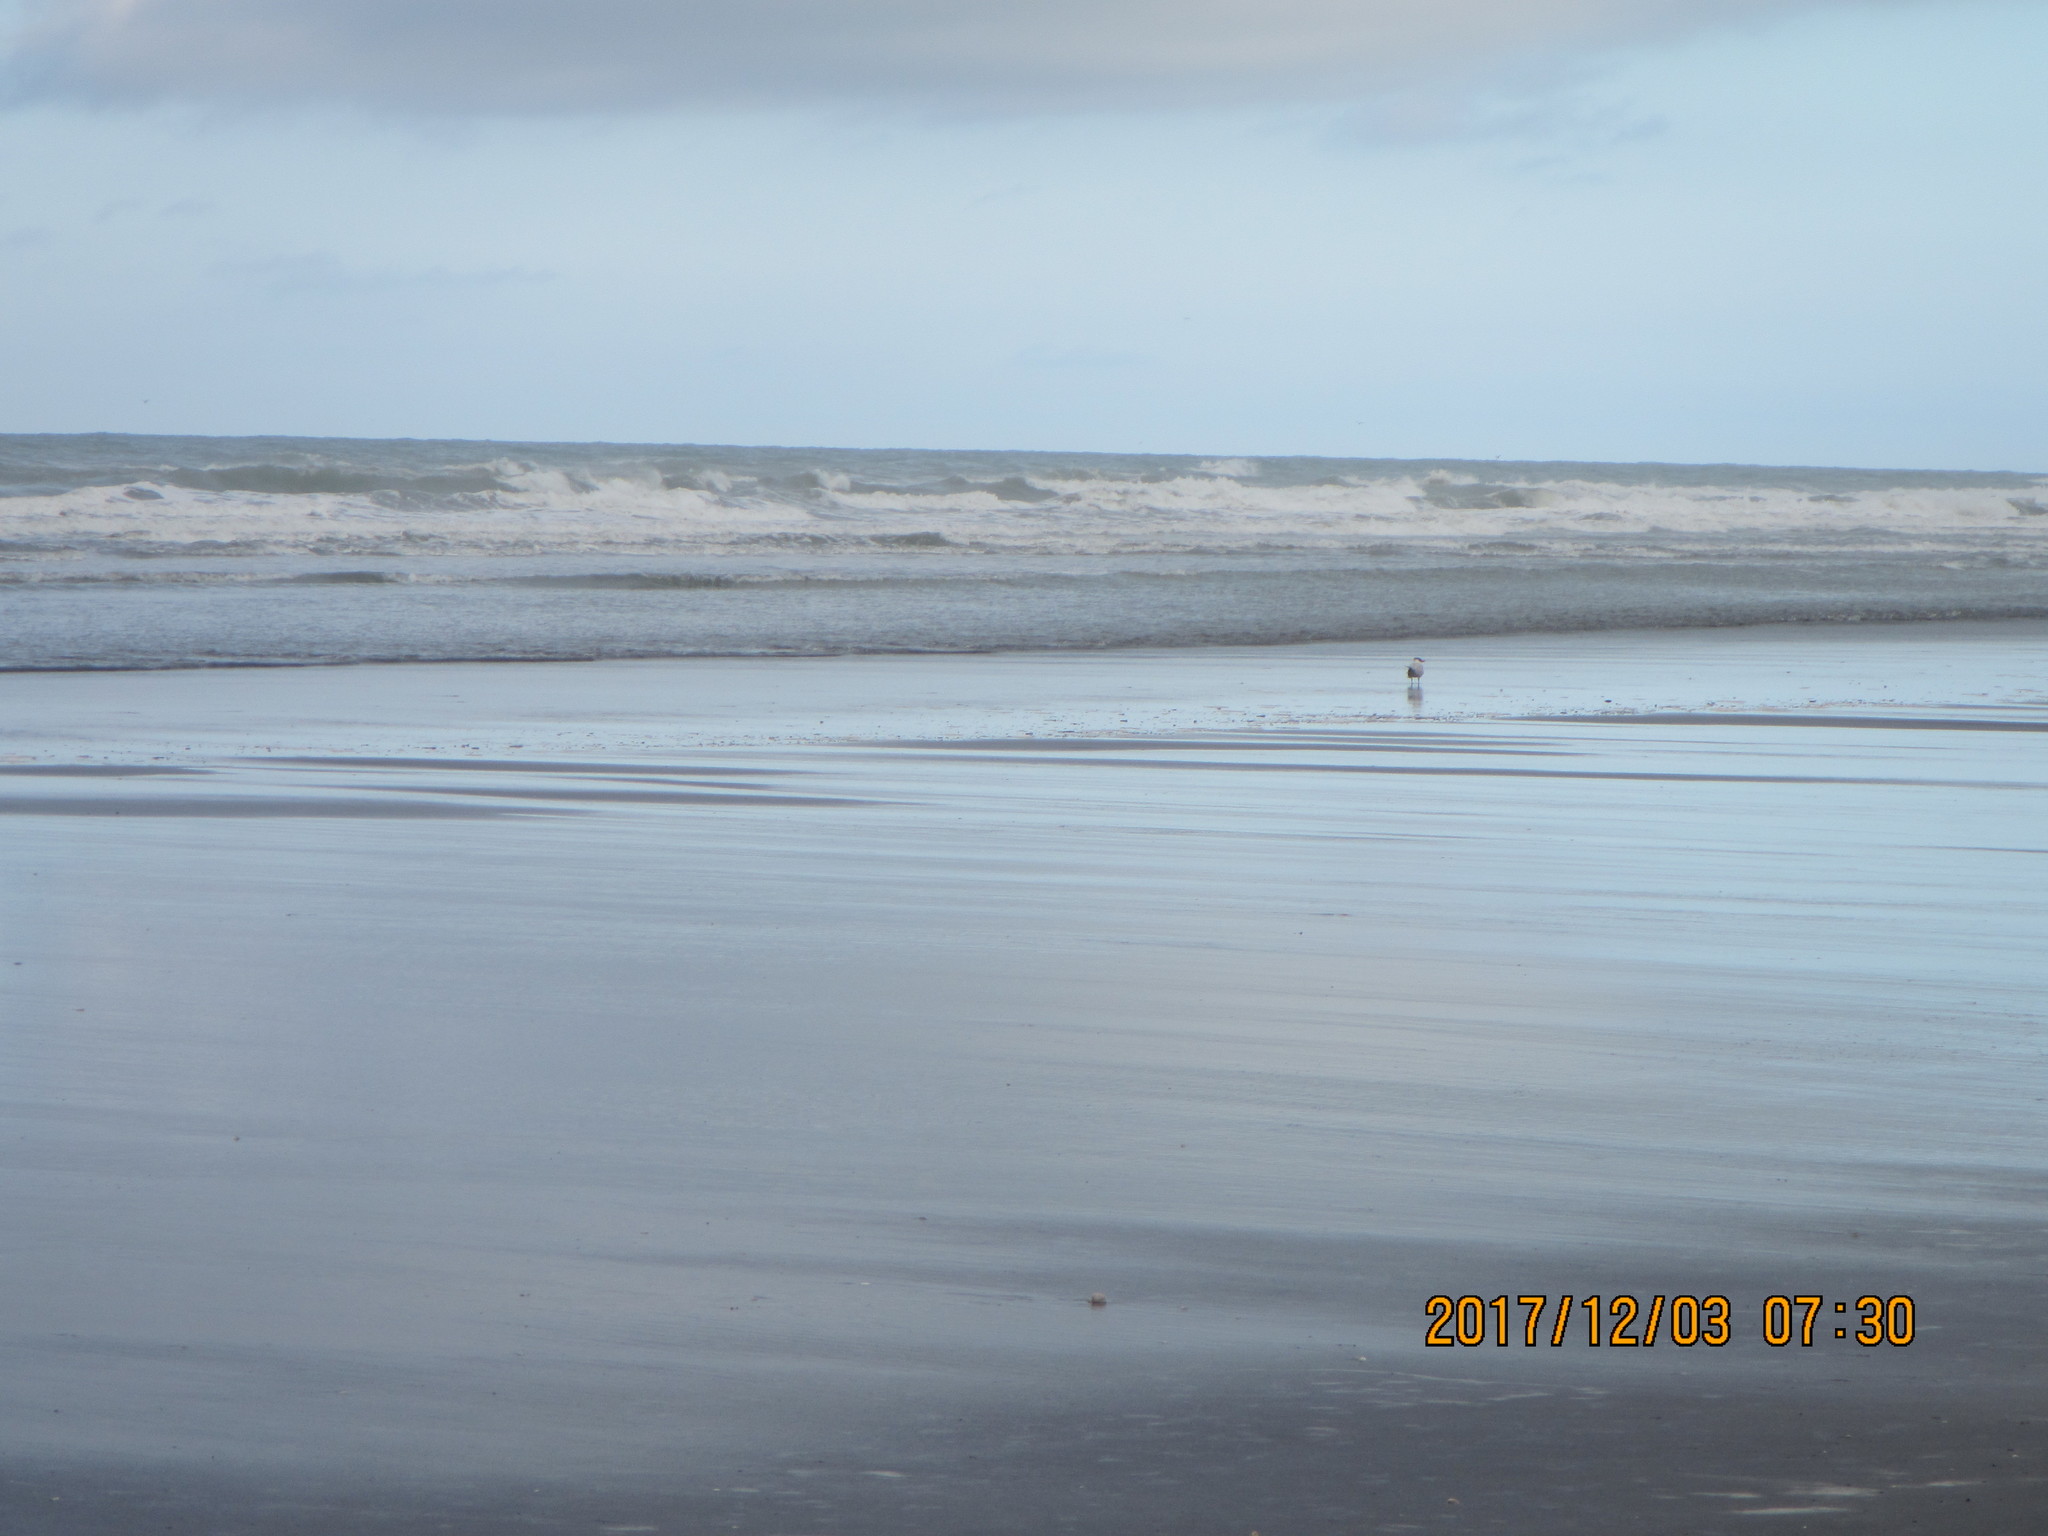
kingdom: Animalia
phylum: Chordata
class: Aves
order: Charadriiformes
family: Laridae
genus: Hydroprogne
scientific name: Hydroprogne caspia
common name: Caspian tern
